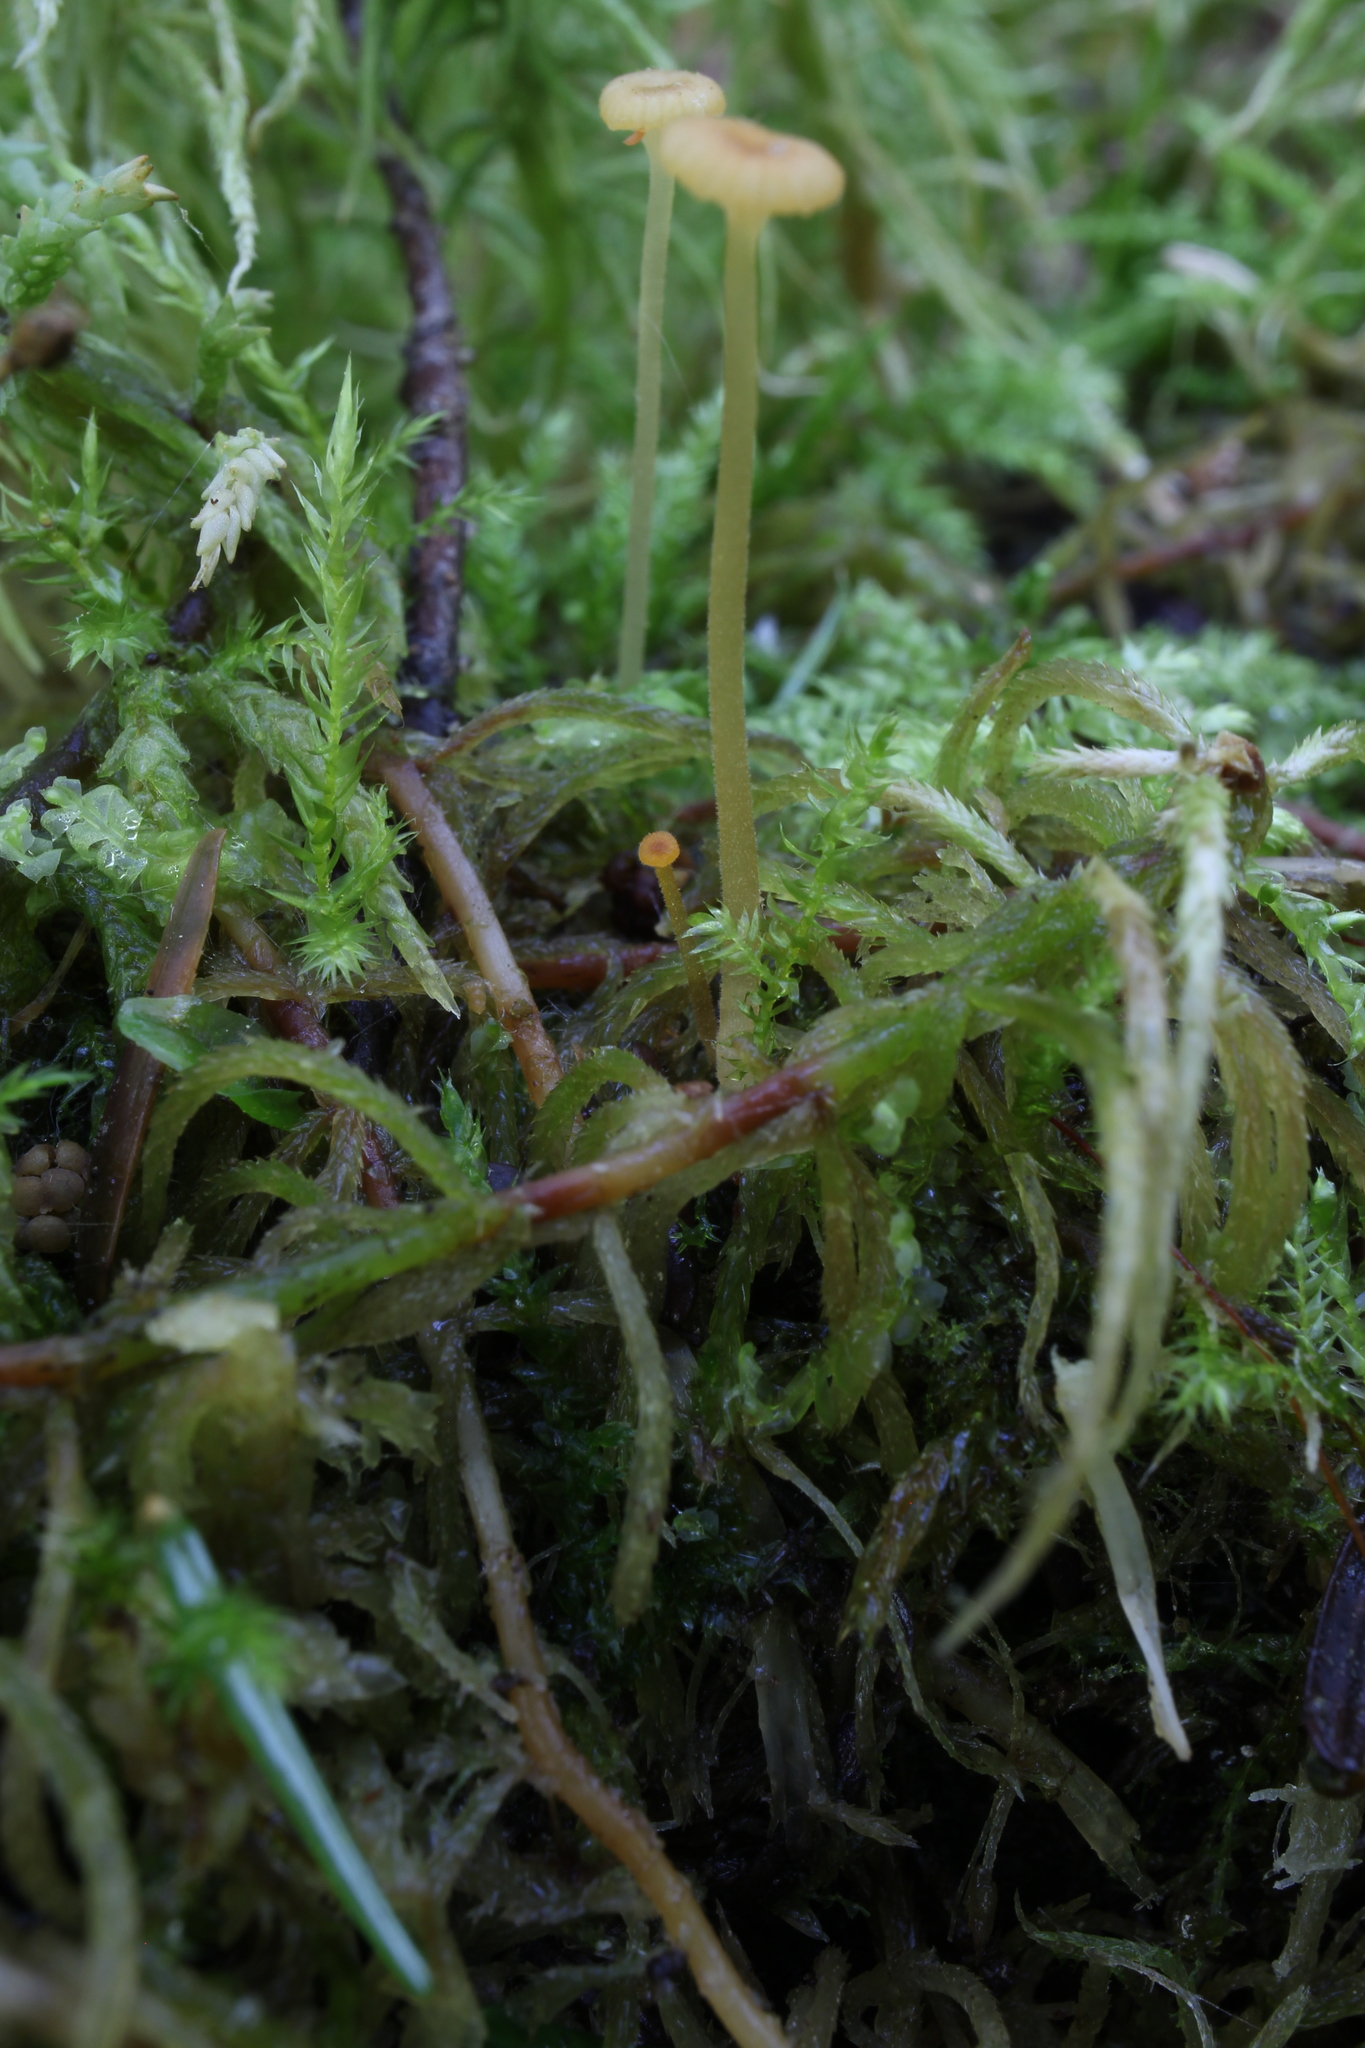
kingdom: Fungi
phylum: Basidiomycota
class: Agaricomycetes
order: Hymenochaetales
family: Rickenellaceae
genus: Rickenella
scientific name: Rickenella fibula
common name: Orange mosscap
